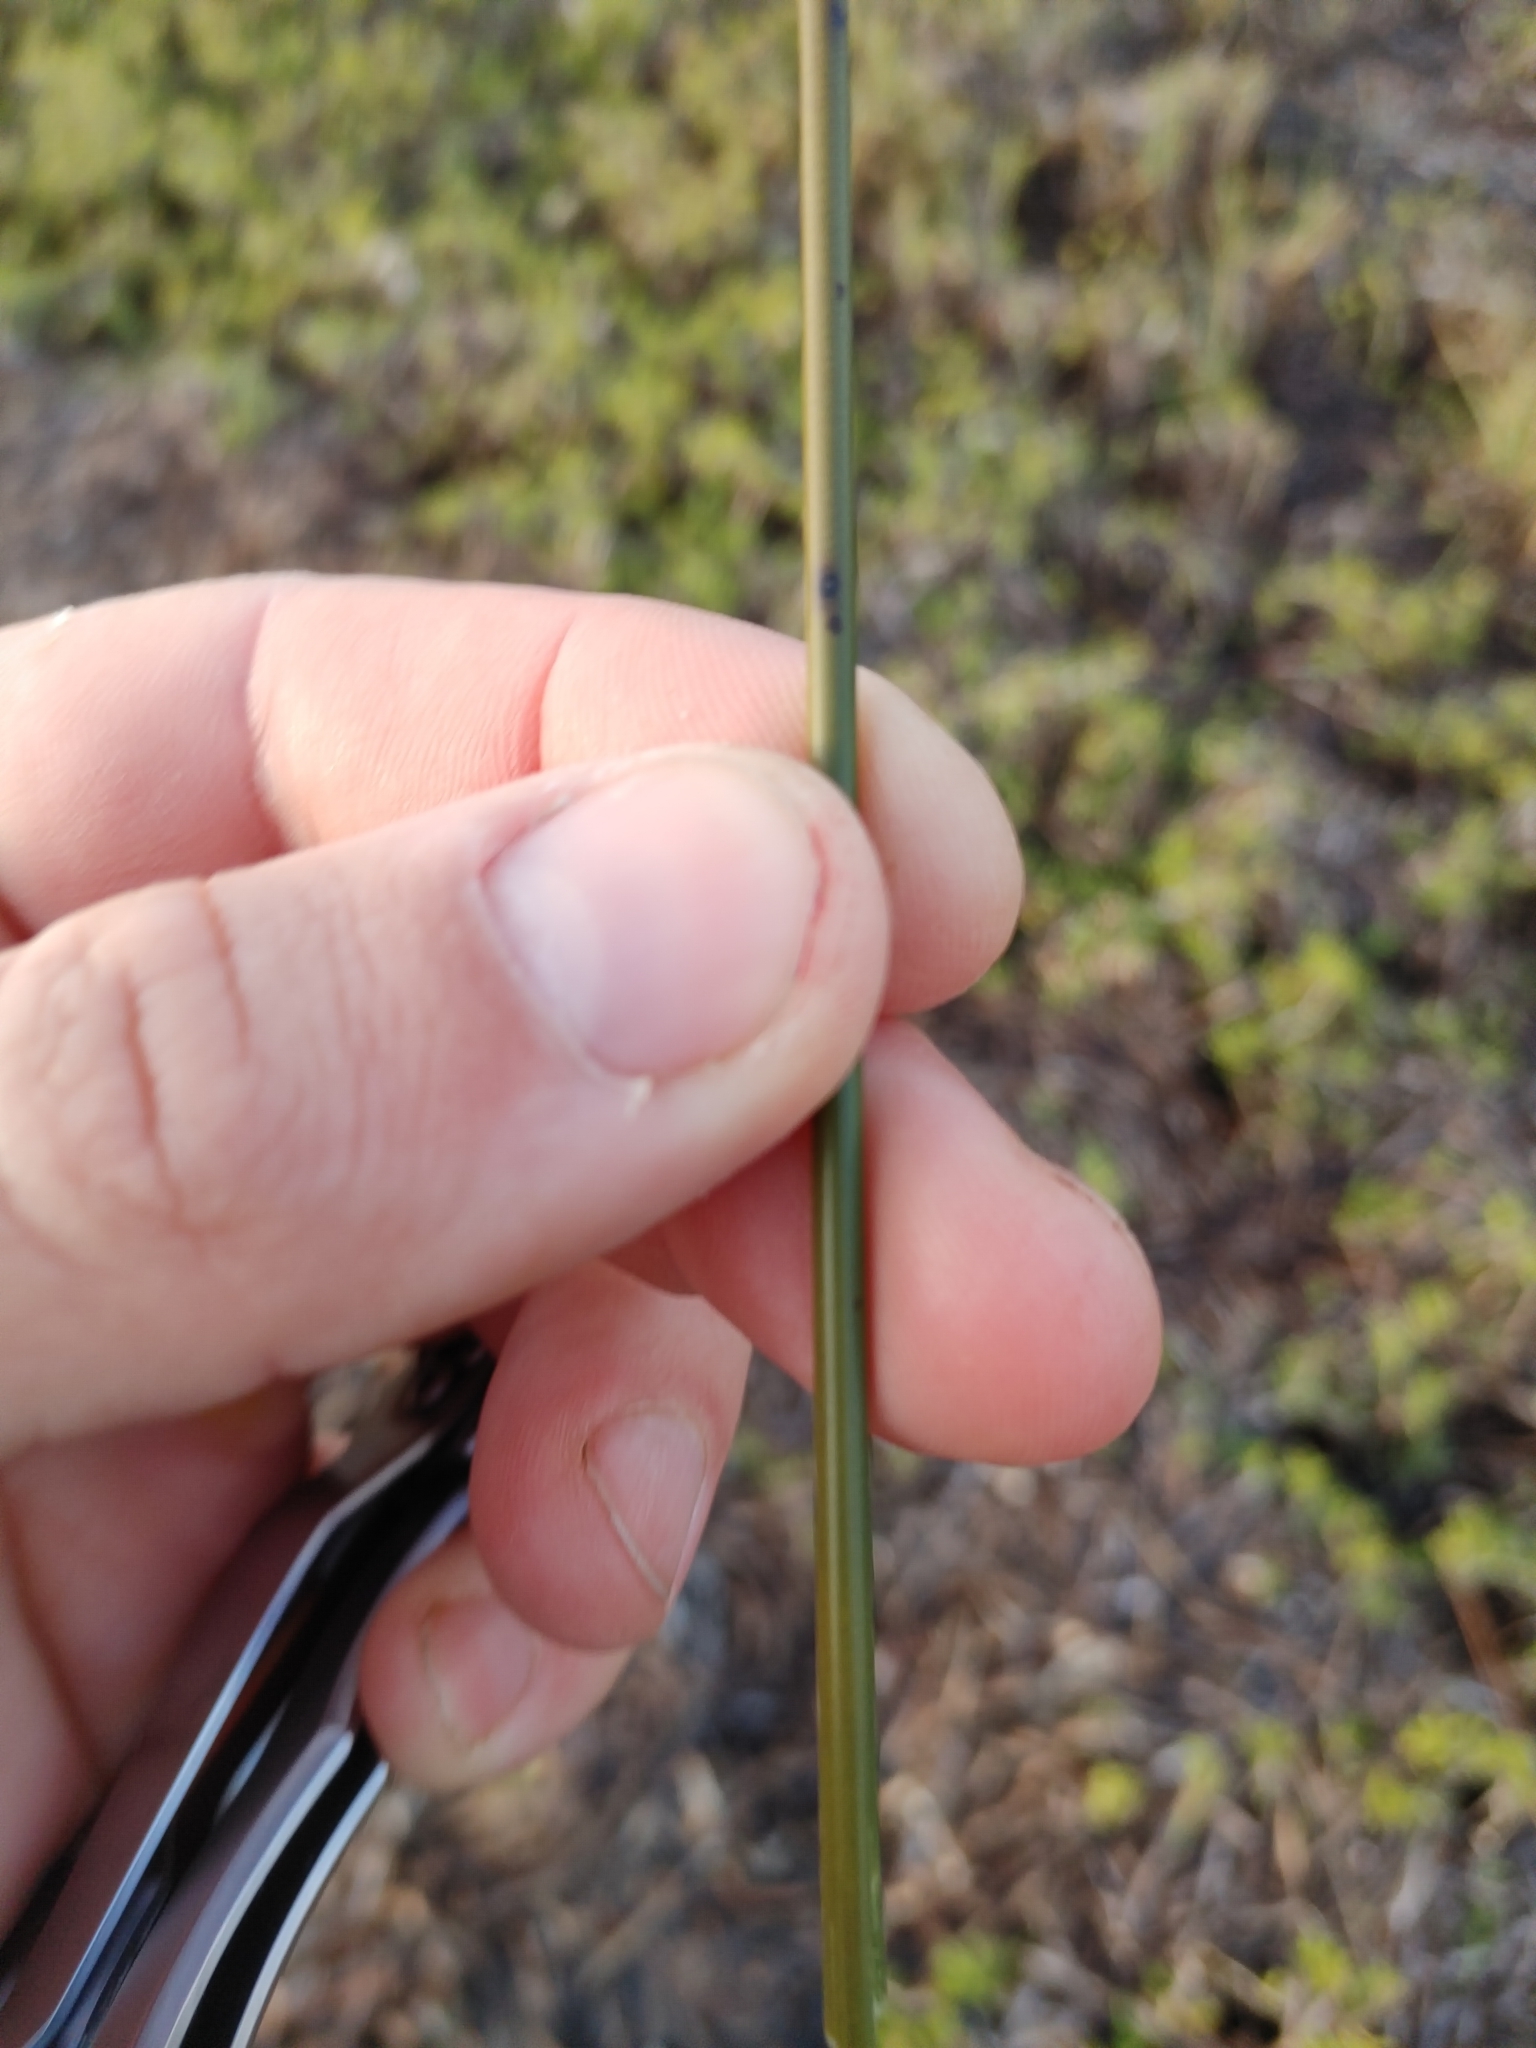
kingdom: Plantae
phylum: Tracheophyta
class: Liliopsida
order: Poales
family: Juncaceae
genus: Juncus
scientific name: Juncus roemerianus
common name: Roemer's rush
